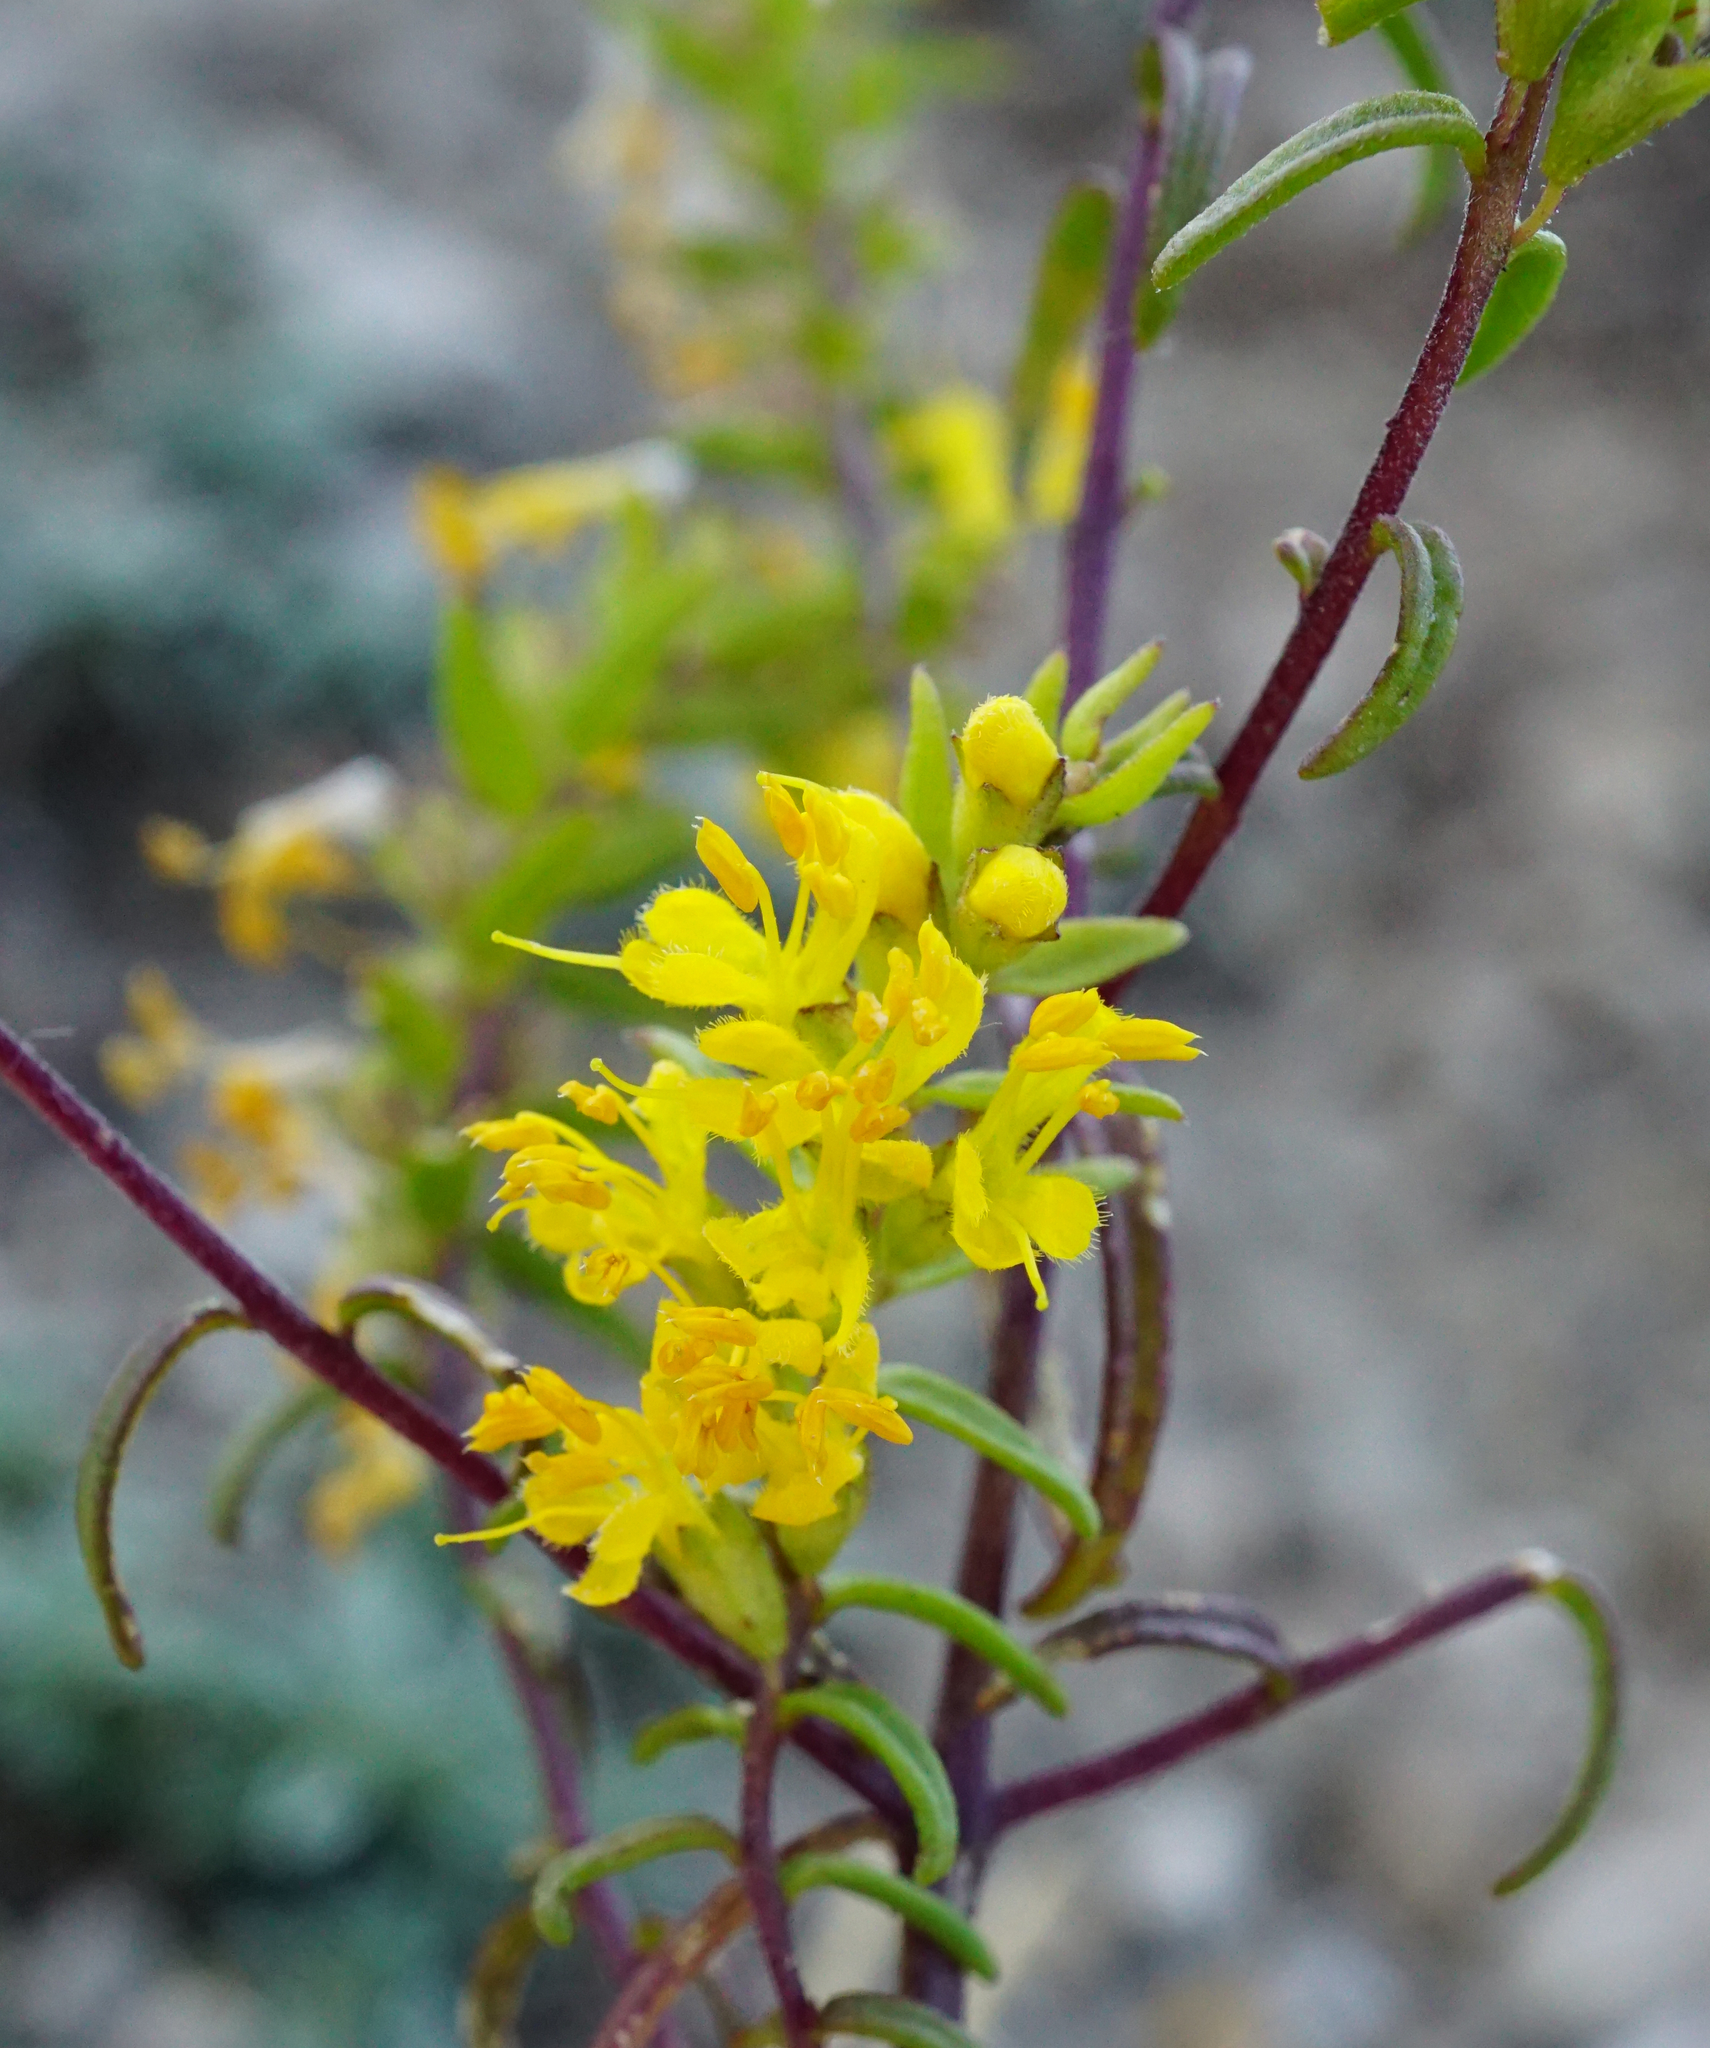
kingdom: Plantae
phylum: Tracheophyta
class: Magnoliopsida
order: Lamiales
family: Orobanchaceae
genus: Odontites
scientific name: Odontites luteus
